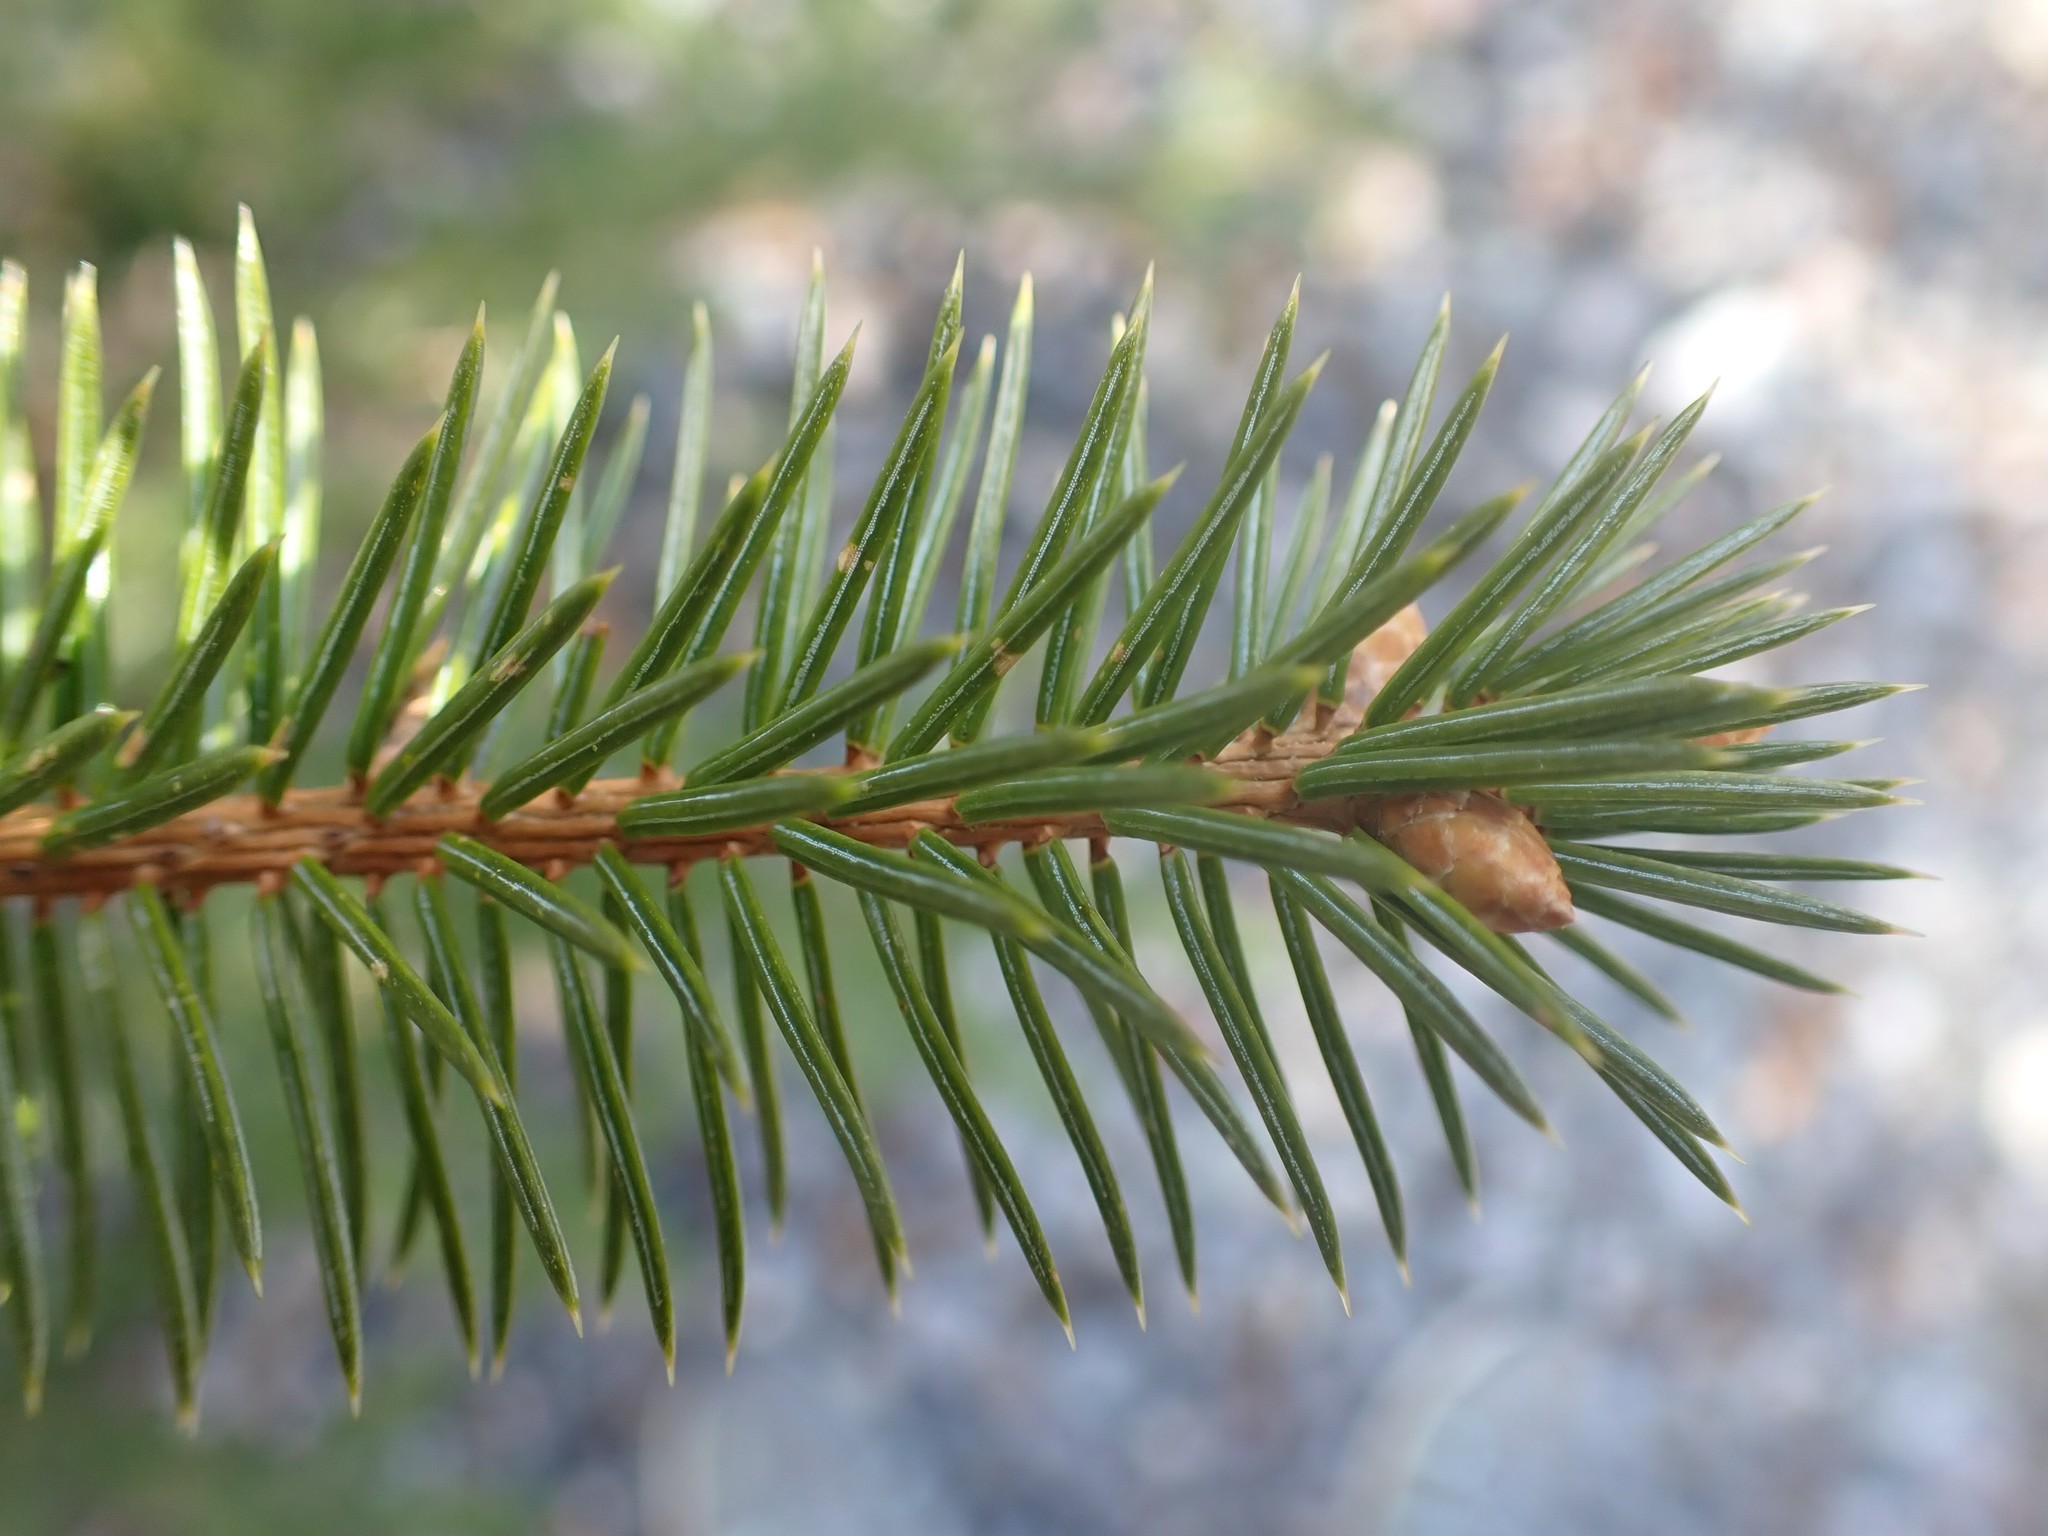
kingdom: Plantae
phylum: Tracheophyta
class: Pinopsida
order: Pinales
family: Pinaceae
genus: Picea
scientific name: Picea sitchensis
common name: Sitka spruce
